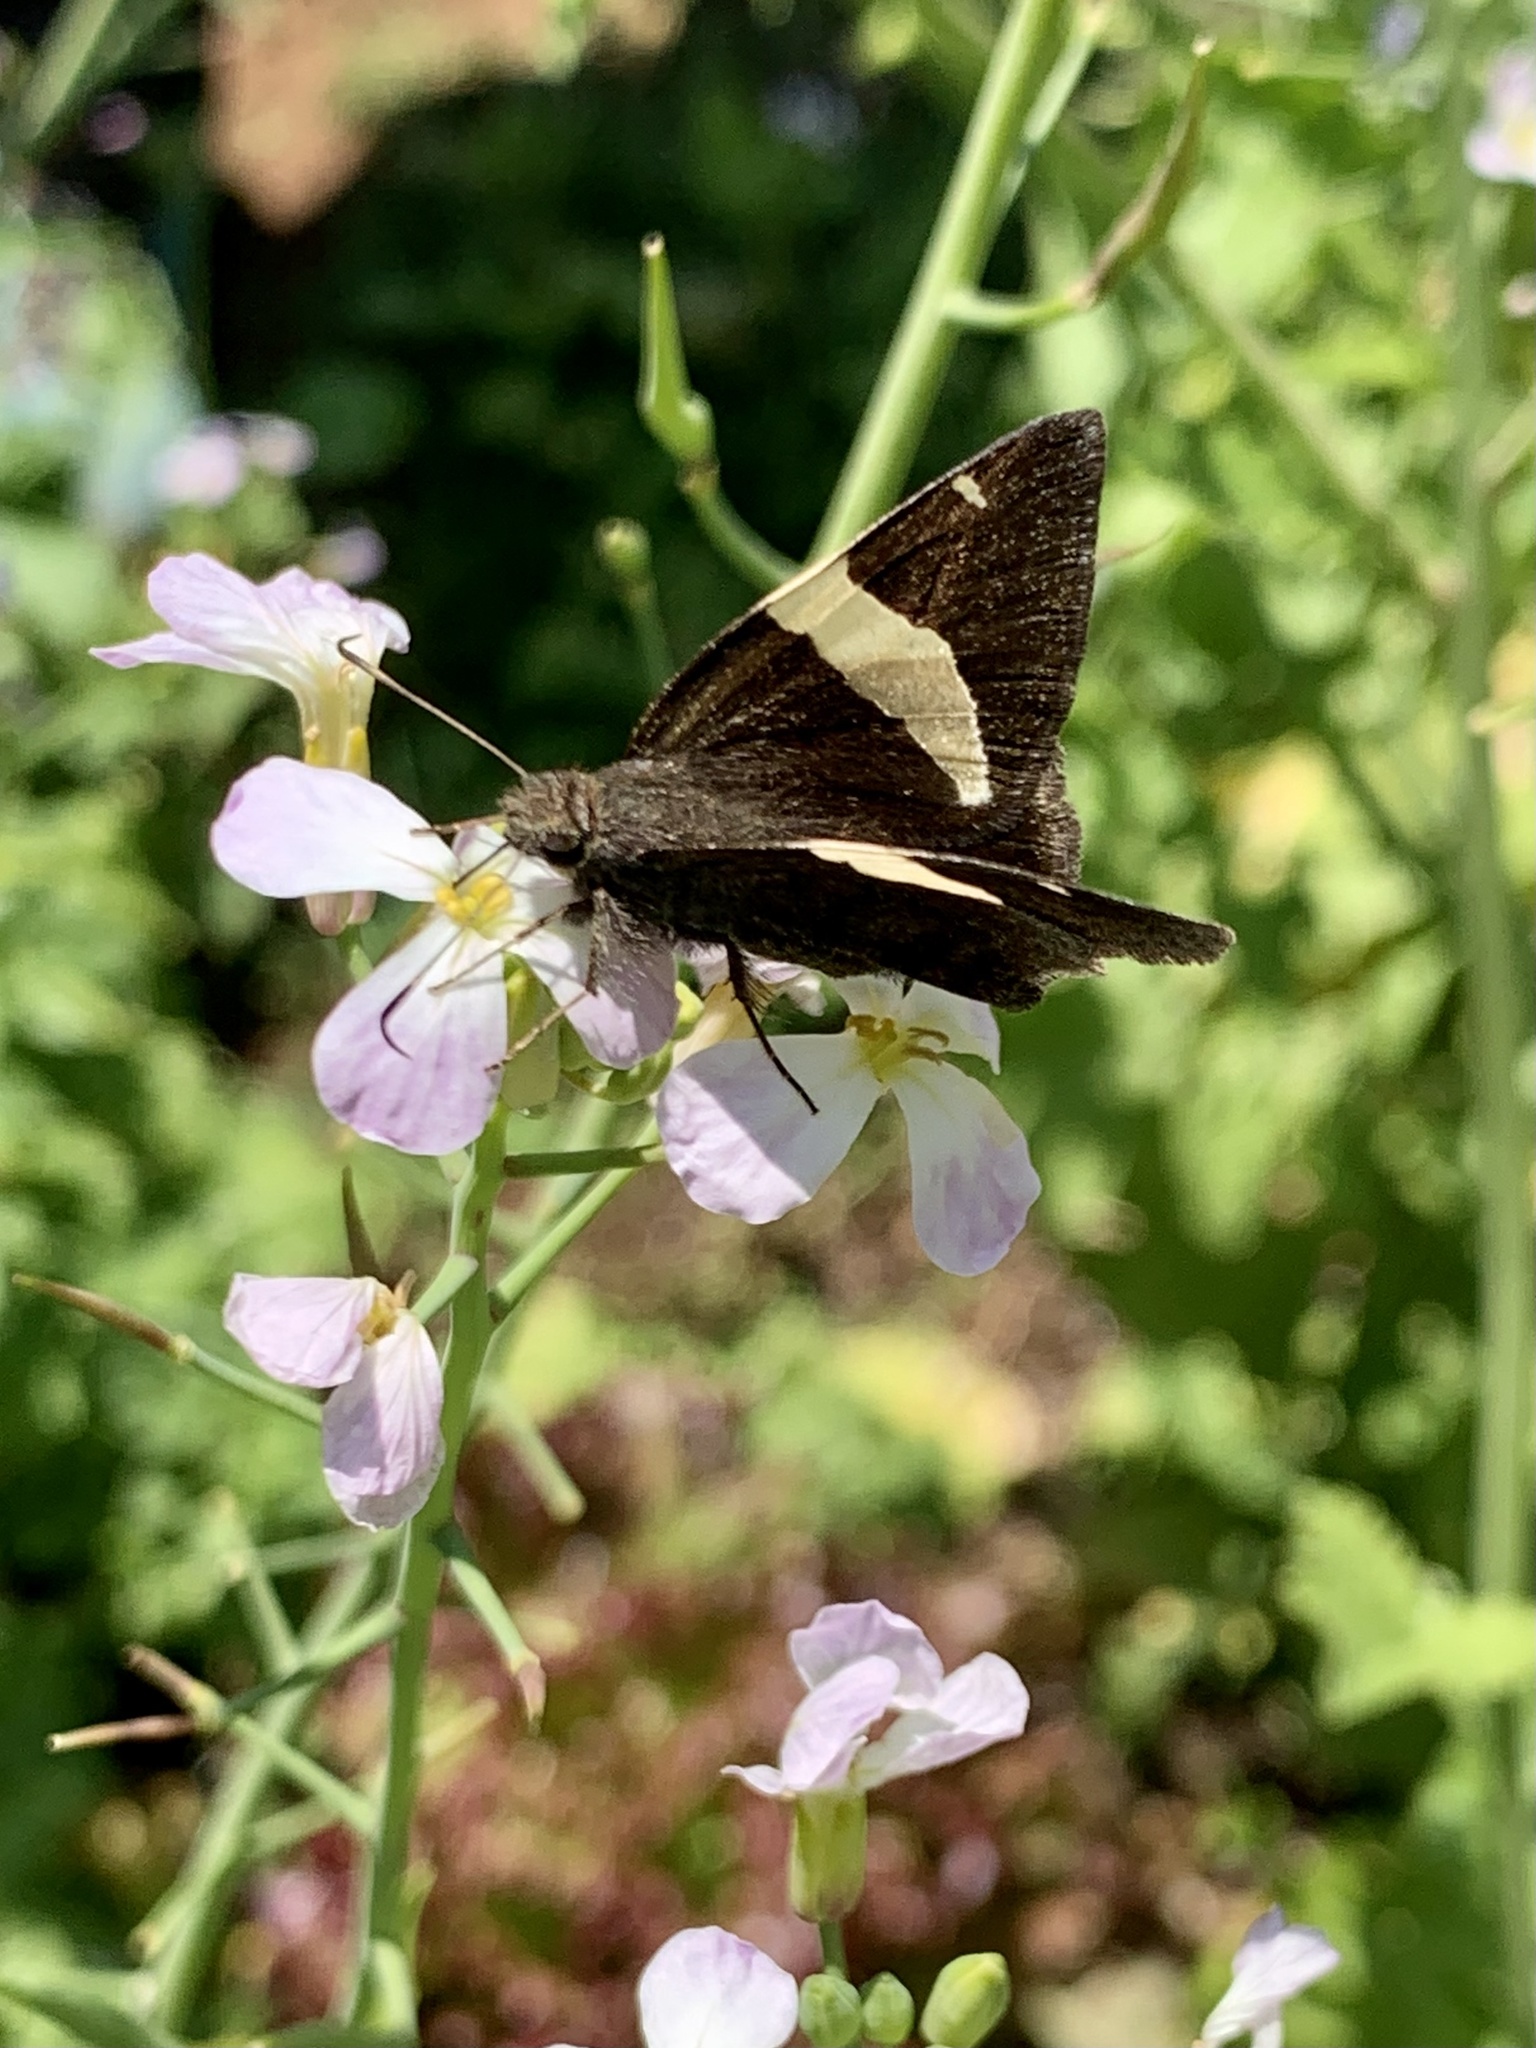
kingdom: Animalia
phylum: Arthropoda
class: Arachnida
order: Scorpiones
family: Bothriuridae
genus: Telegonus
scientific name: Telegonus cellus
